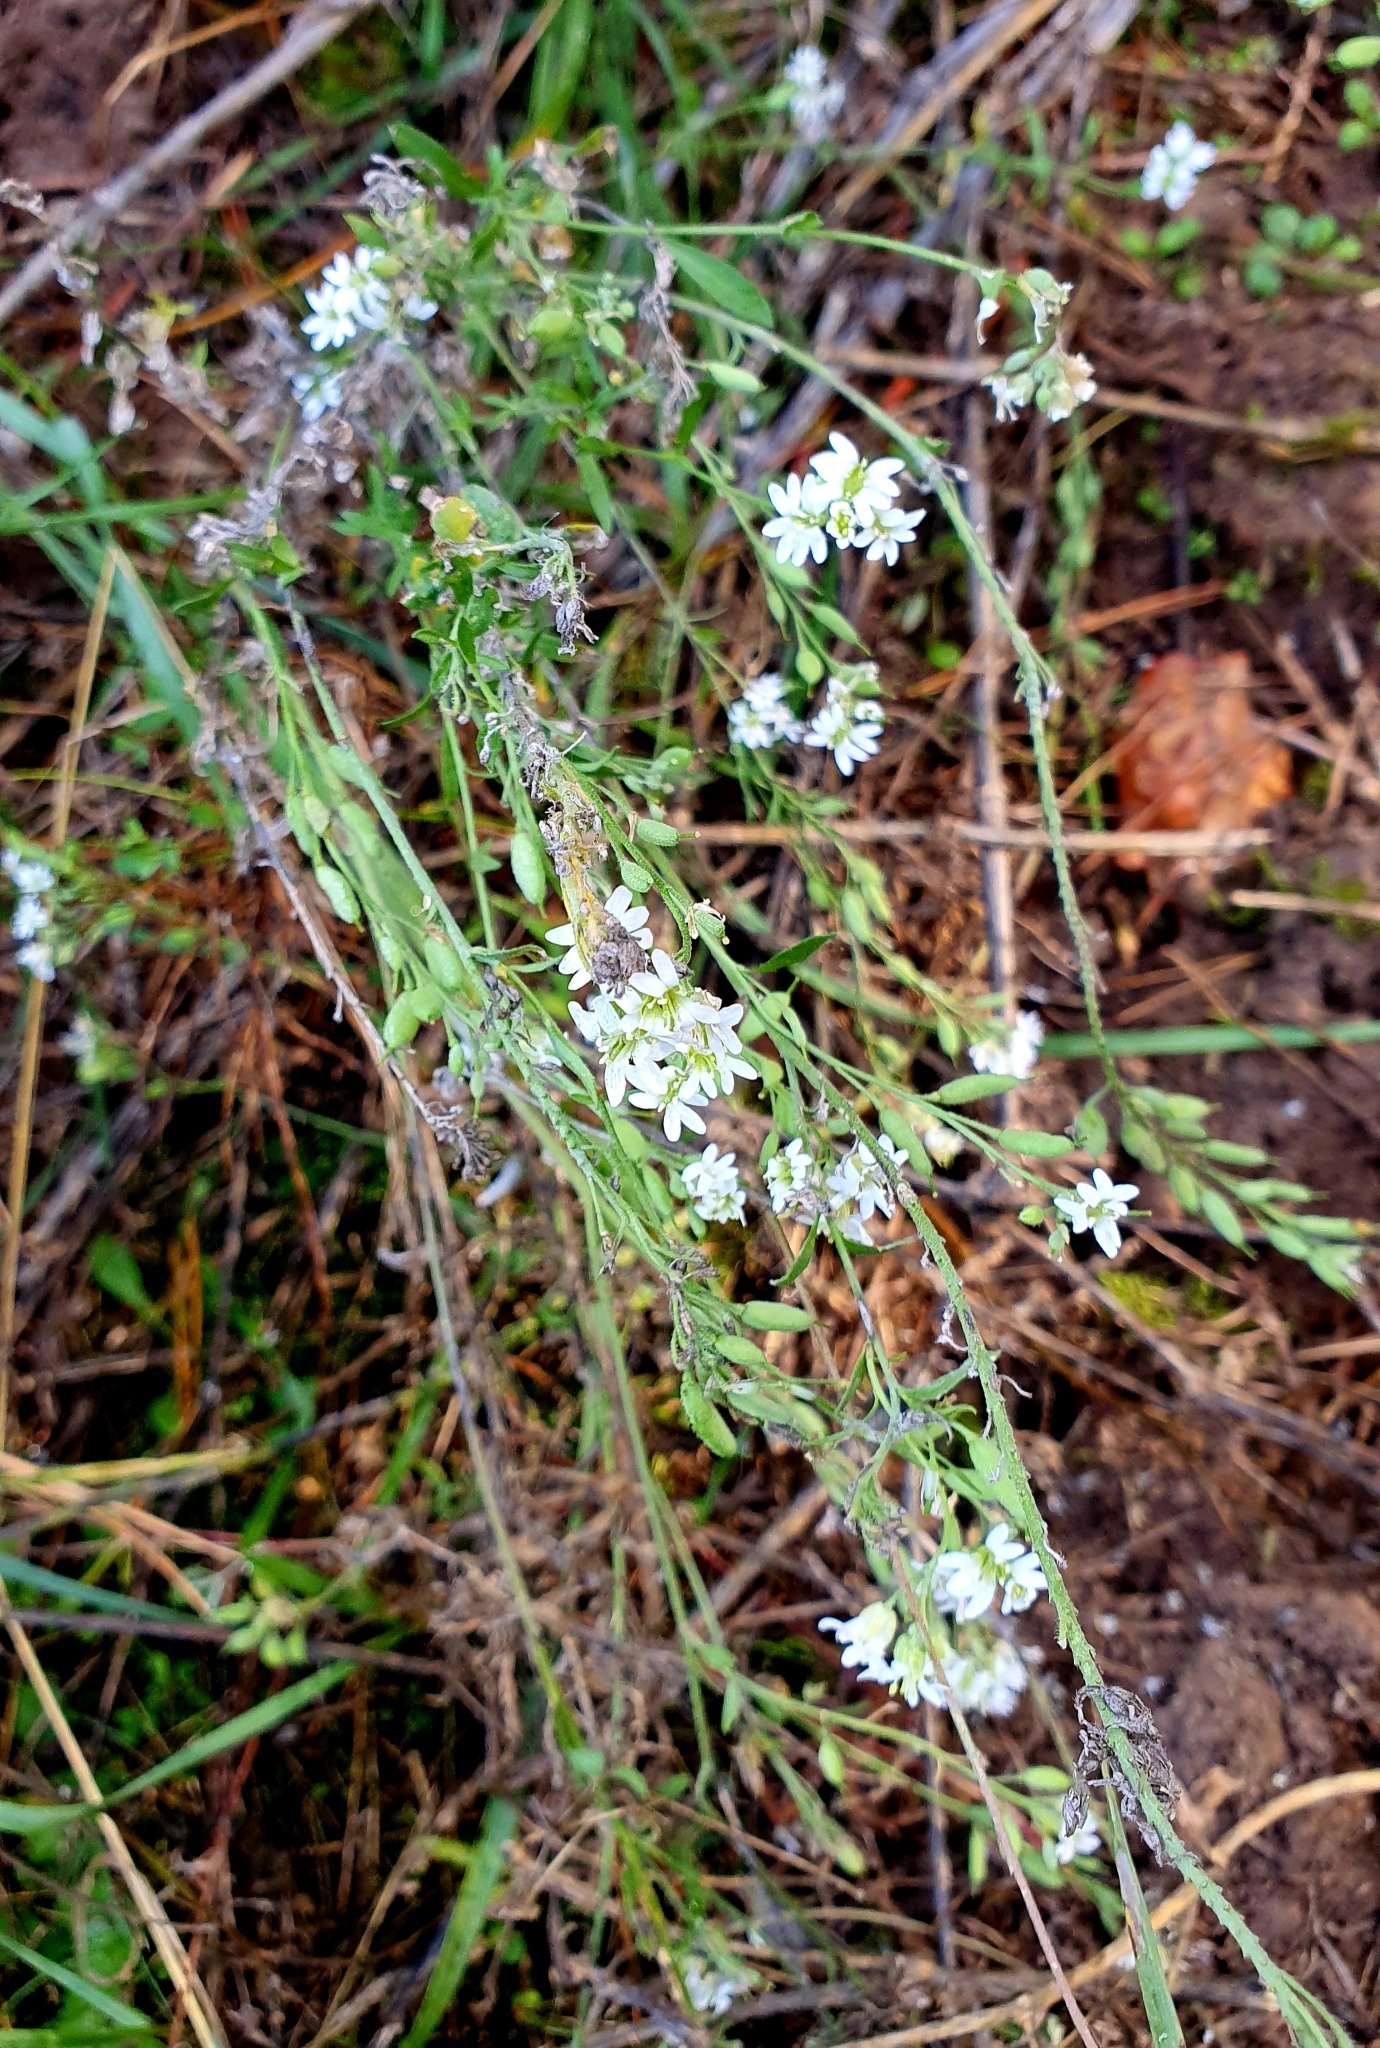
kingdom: Plantae
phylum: Tracheophyta
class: Magnoliopsida
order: Brassicales
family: Brassicaceae
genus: Berteroa
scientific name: Berteroa incana
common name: Hoary alison
